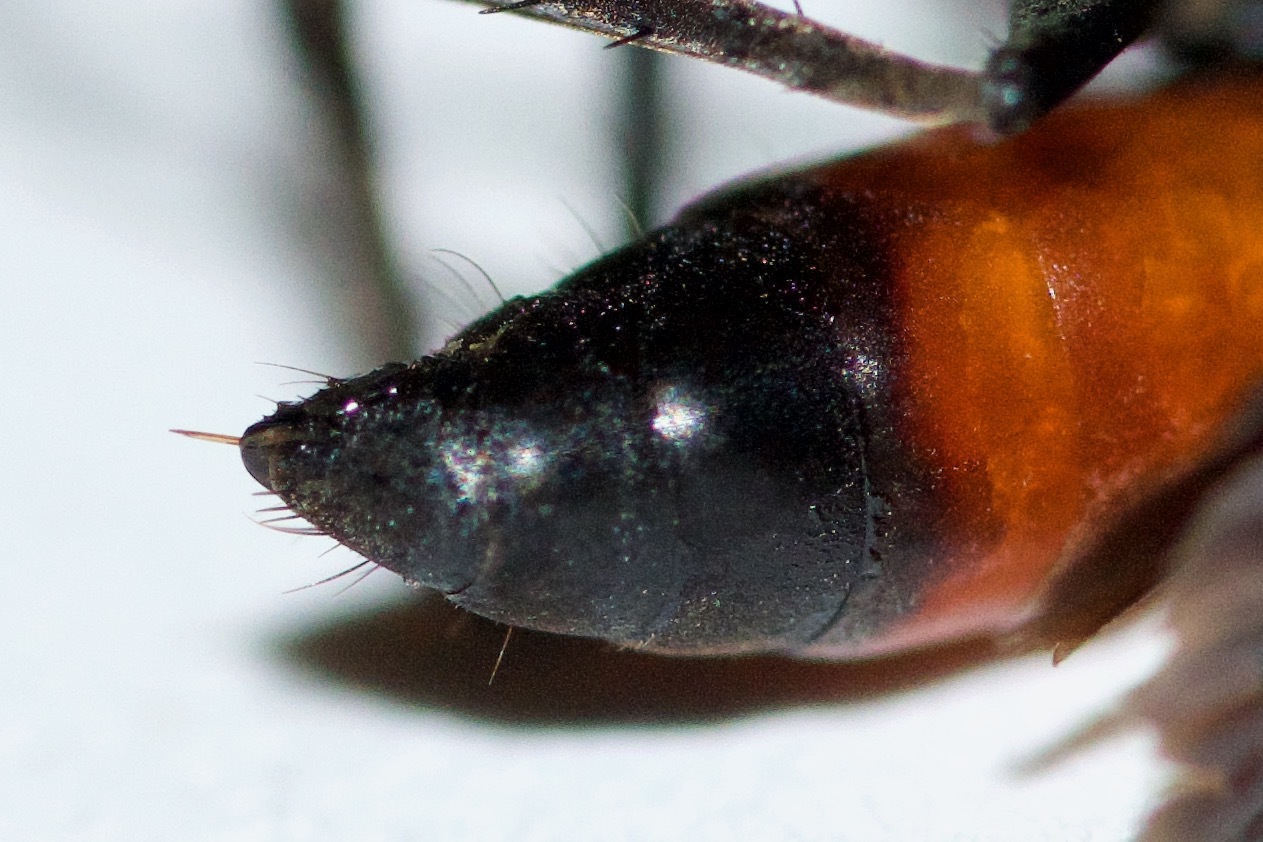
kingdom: Animalia
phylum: Arthropoda
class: Insecta
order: Hymenoptera
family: Pompilidae
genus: Anoplius
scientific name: Anoplius semirufus
